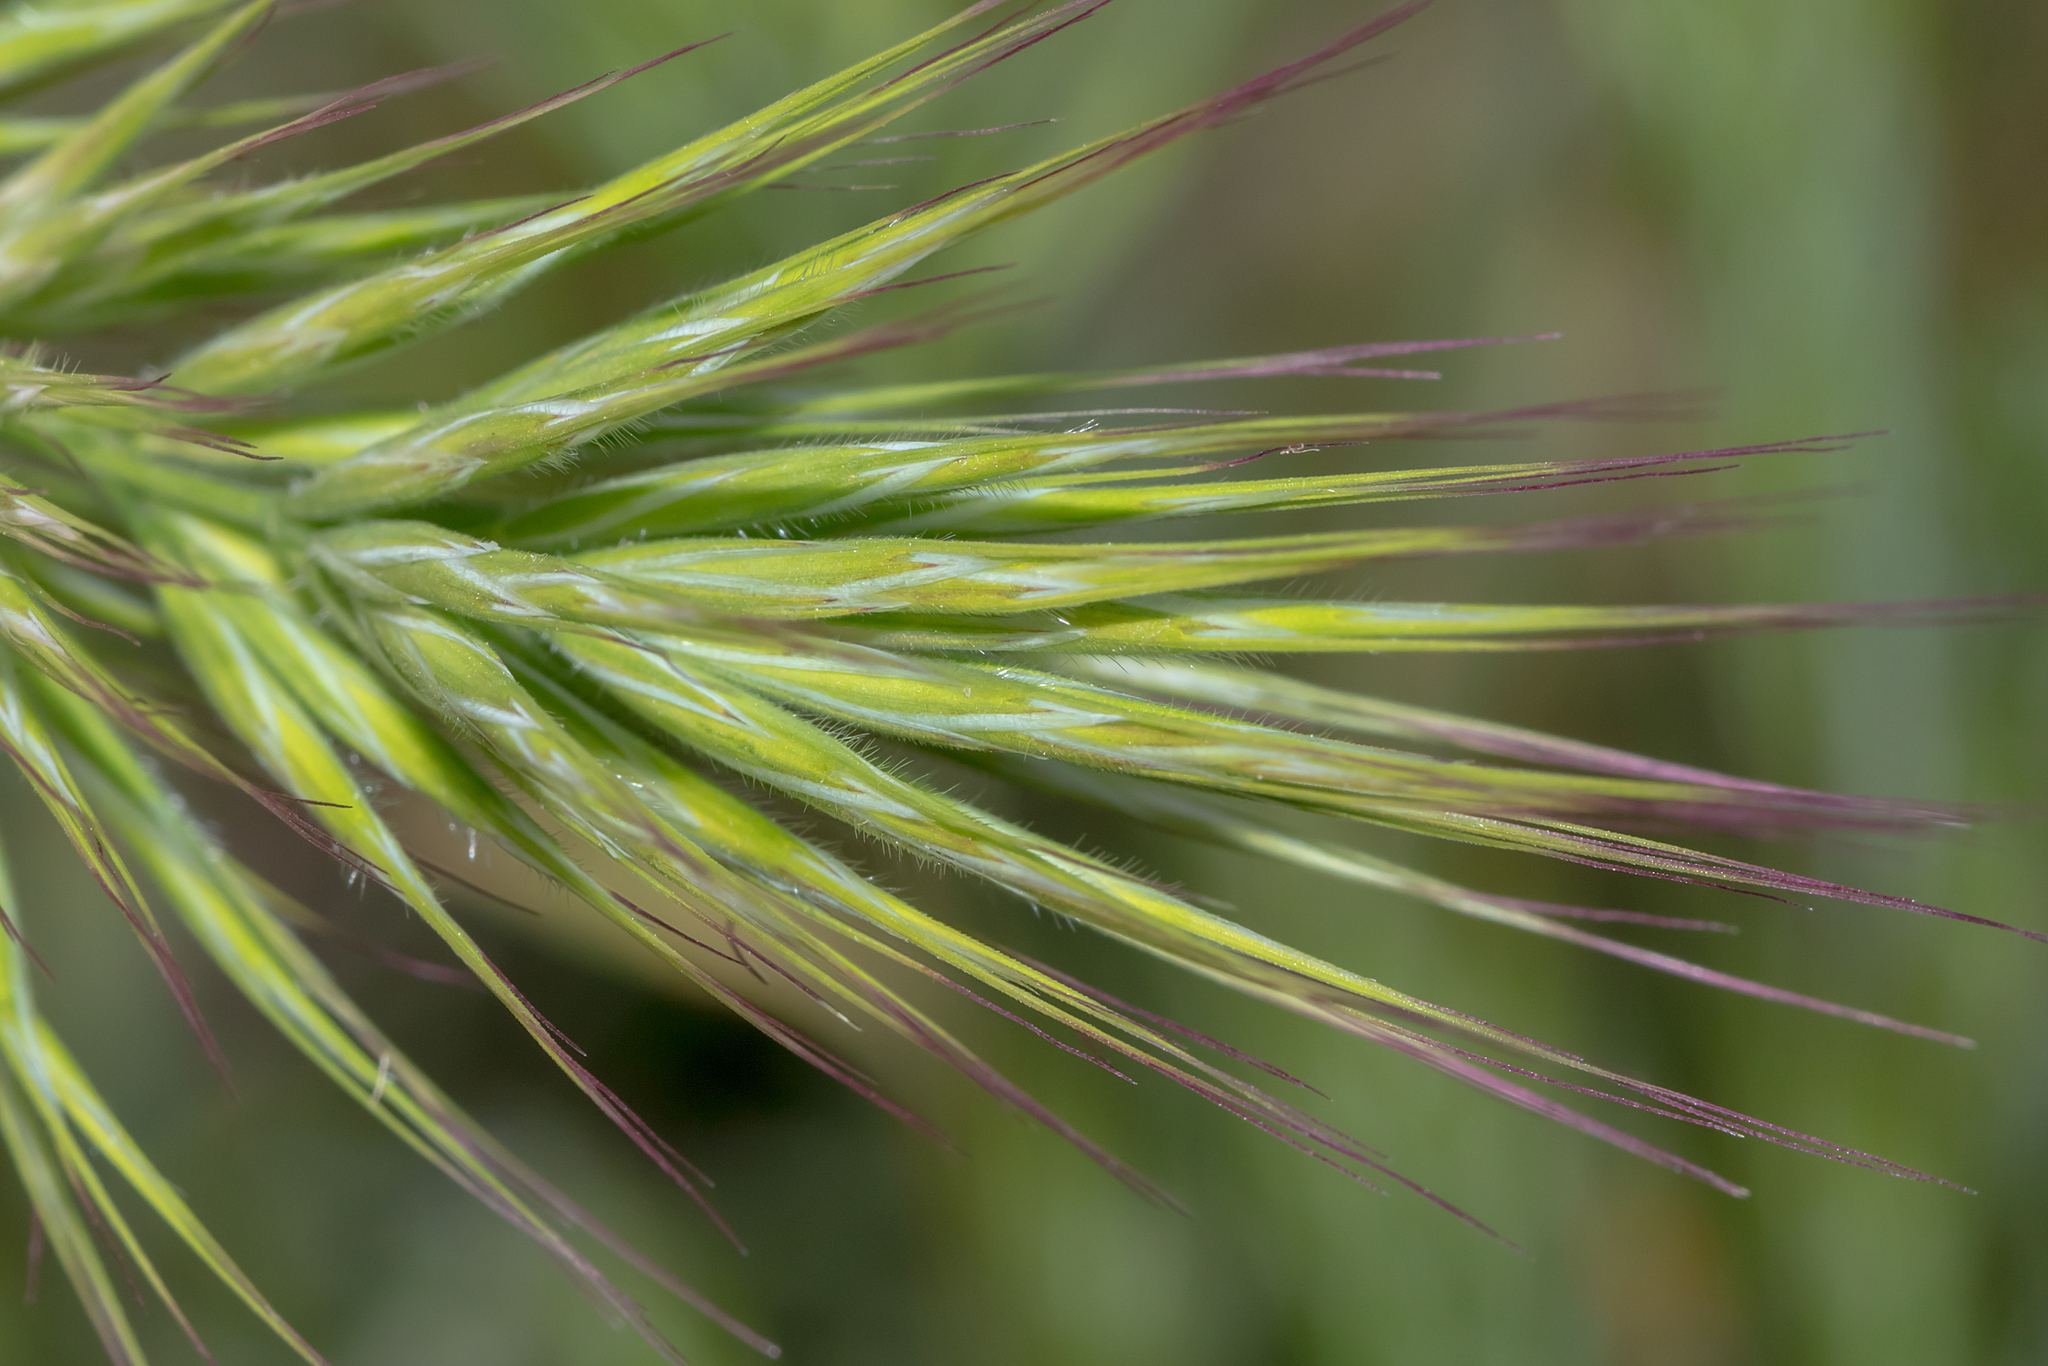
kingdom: Plantae
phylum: Tracheophyta
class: Liliopsida
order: Poales
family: Poaceae
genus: Bromus
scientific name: Bromus rubens
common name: Red brome
